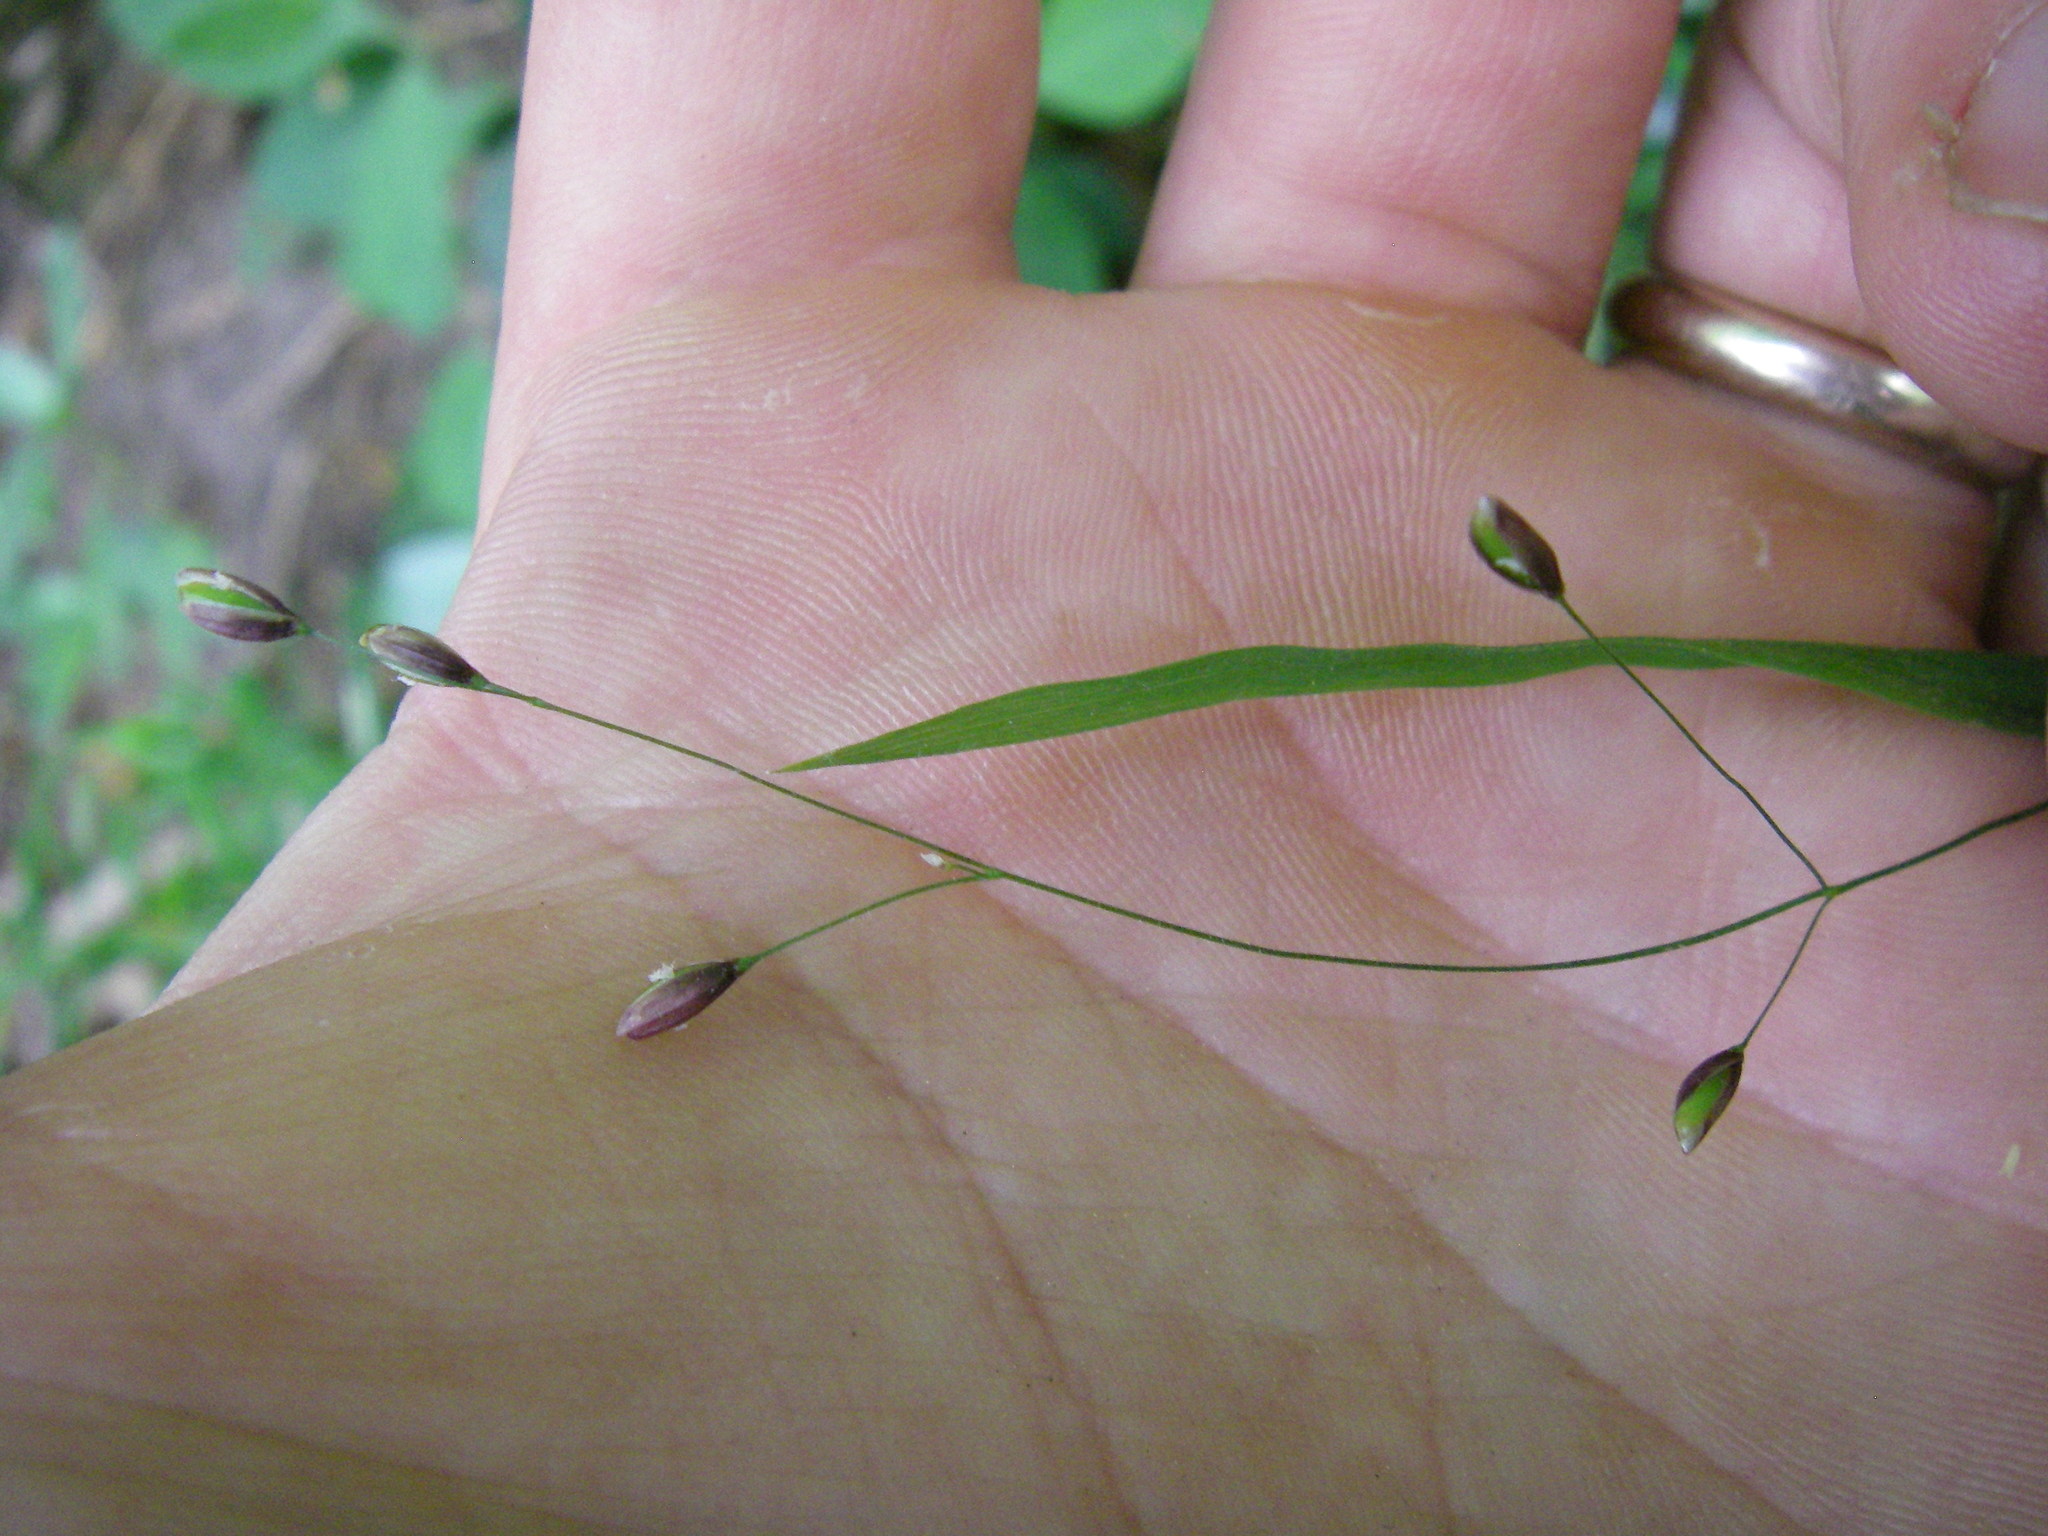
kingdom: Plantae
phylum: Tracheophyta
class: Liliopsida
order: Poales
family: Poaceae
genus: Melica
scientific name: Melica uniflora
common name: Wood melick
